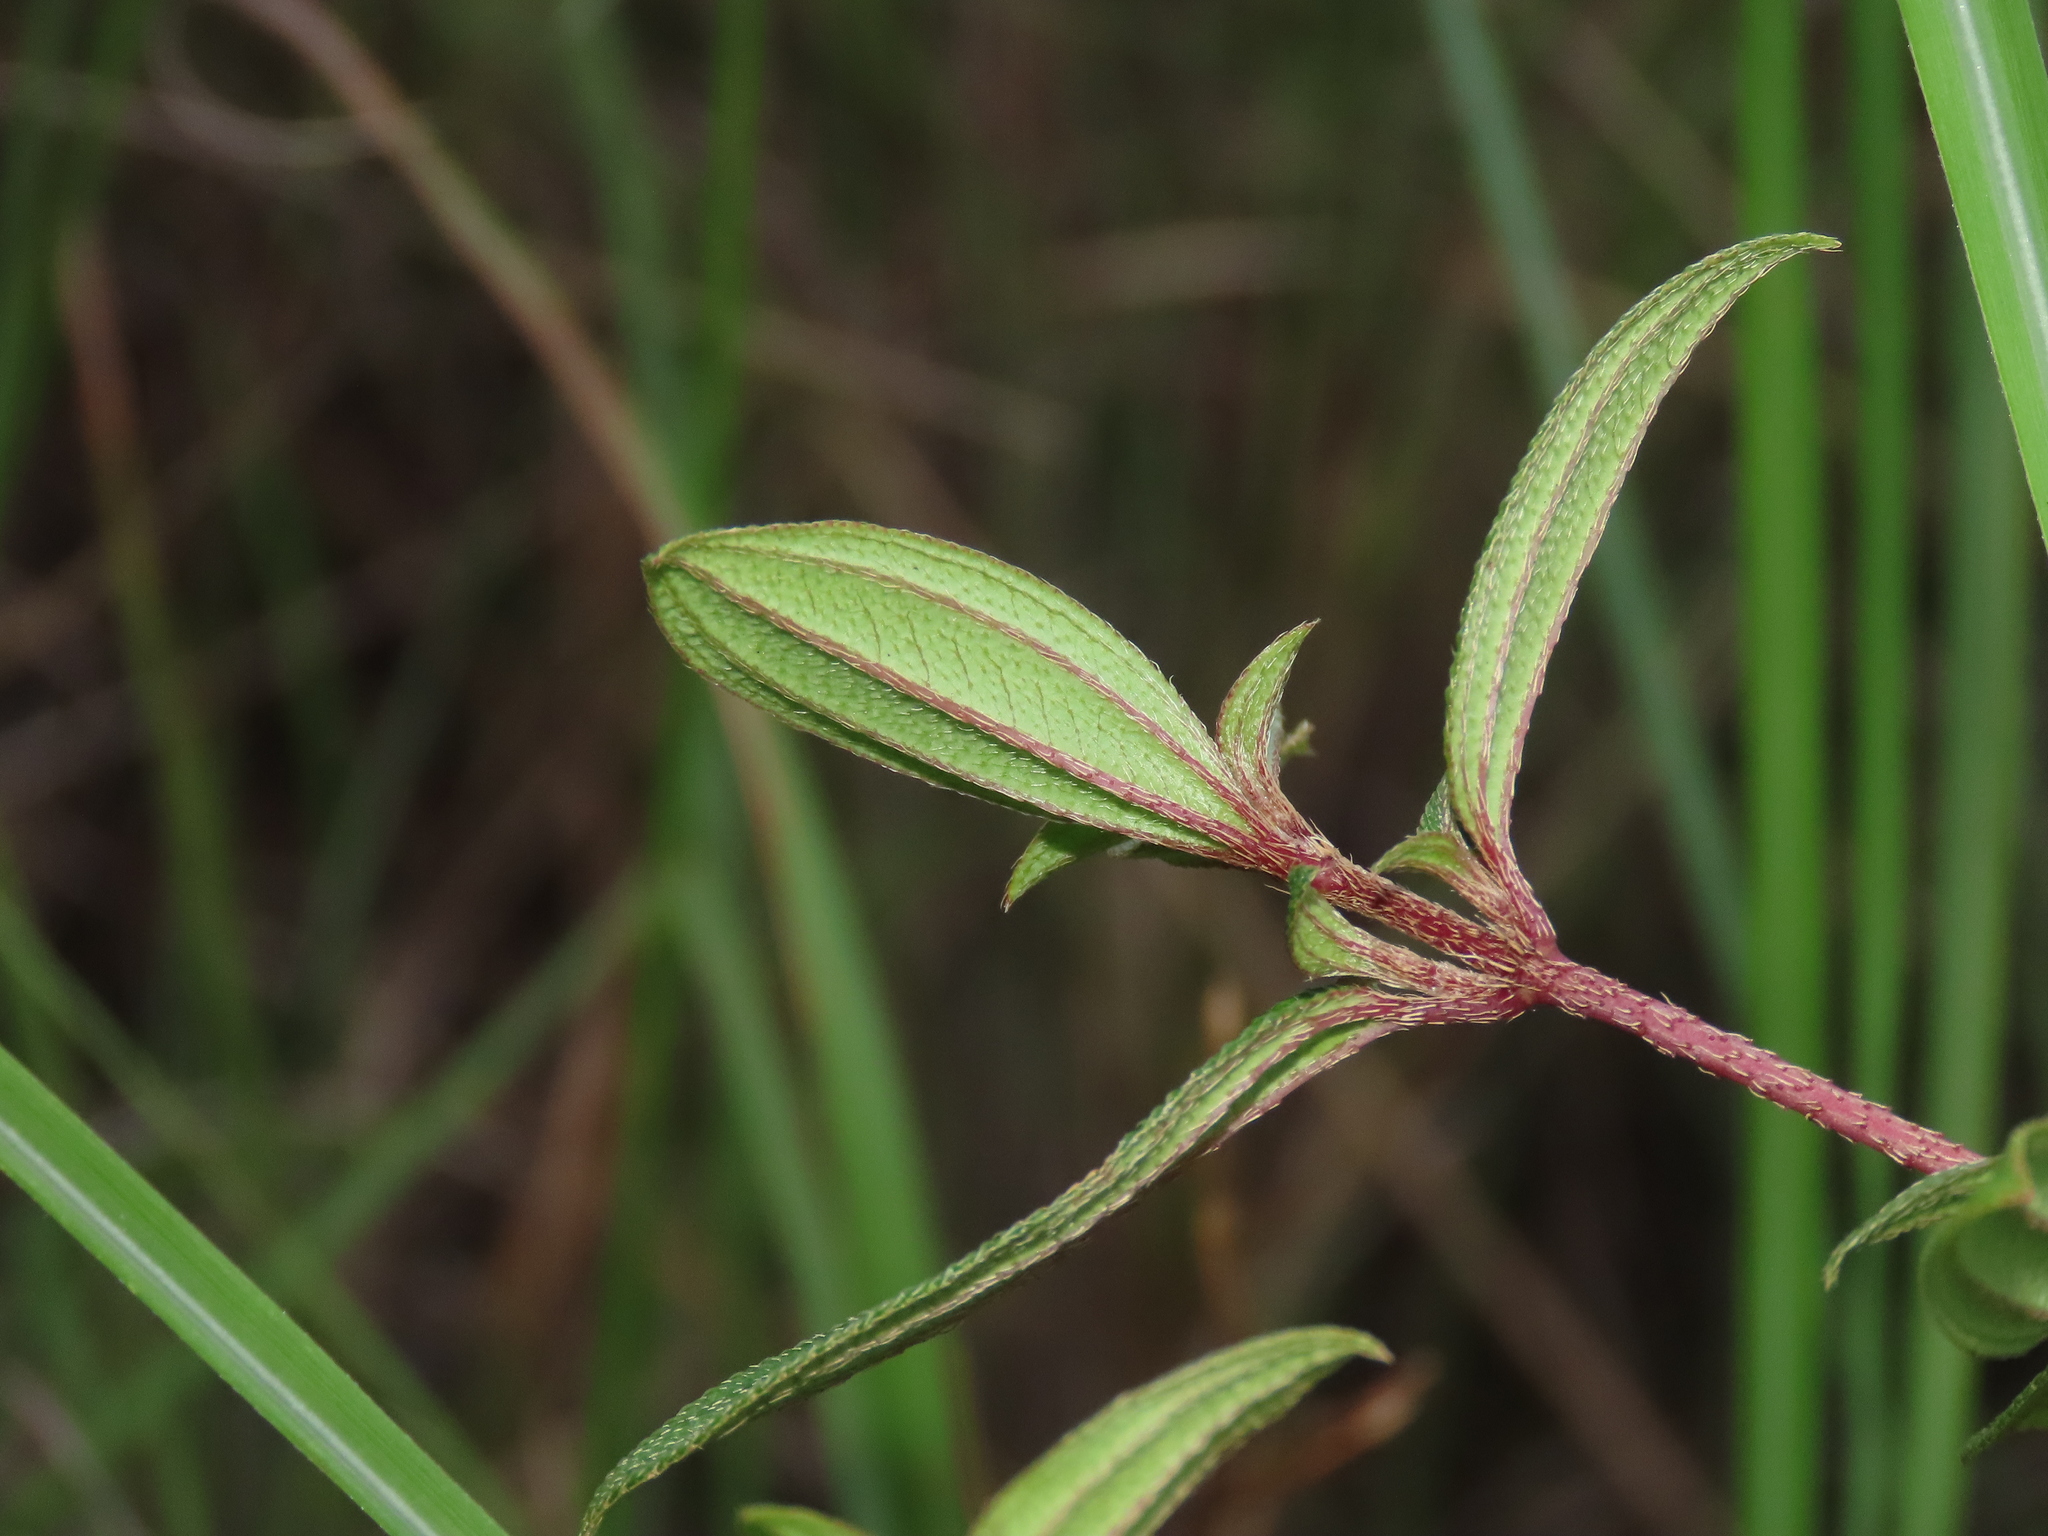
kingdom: Plantae
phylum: Tracheophyta
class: Magnoliopsida
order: Myrtales
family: Melastomataceae
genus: Melastoma
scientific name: Melastoma scaberrima
